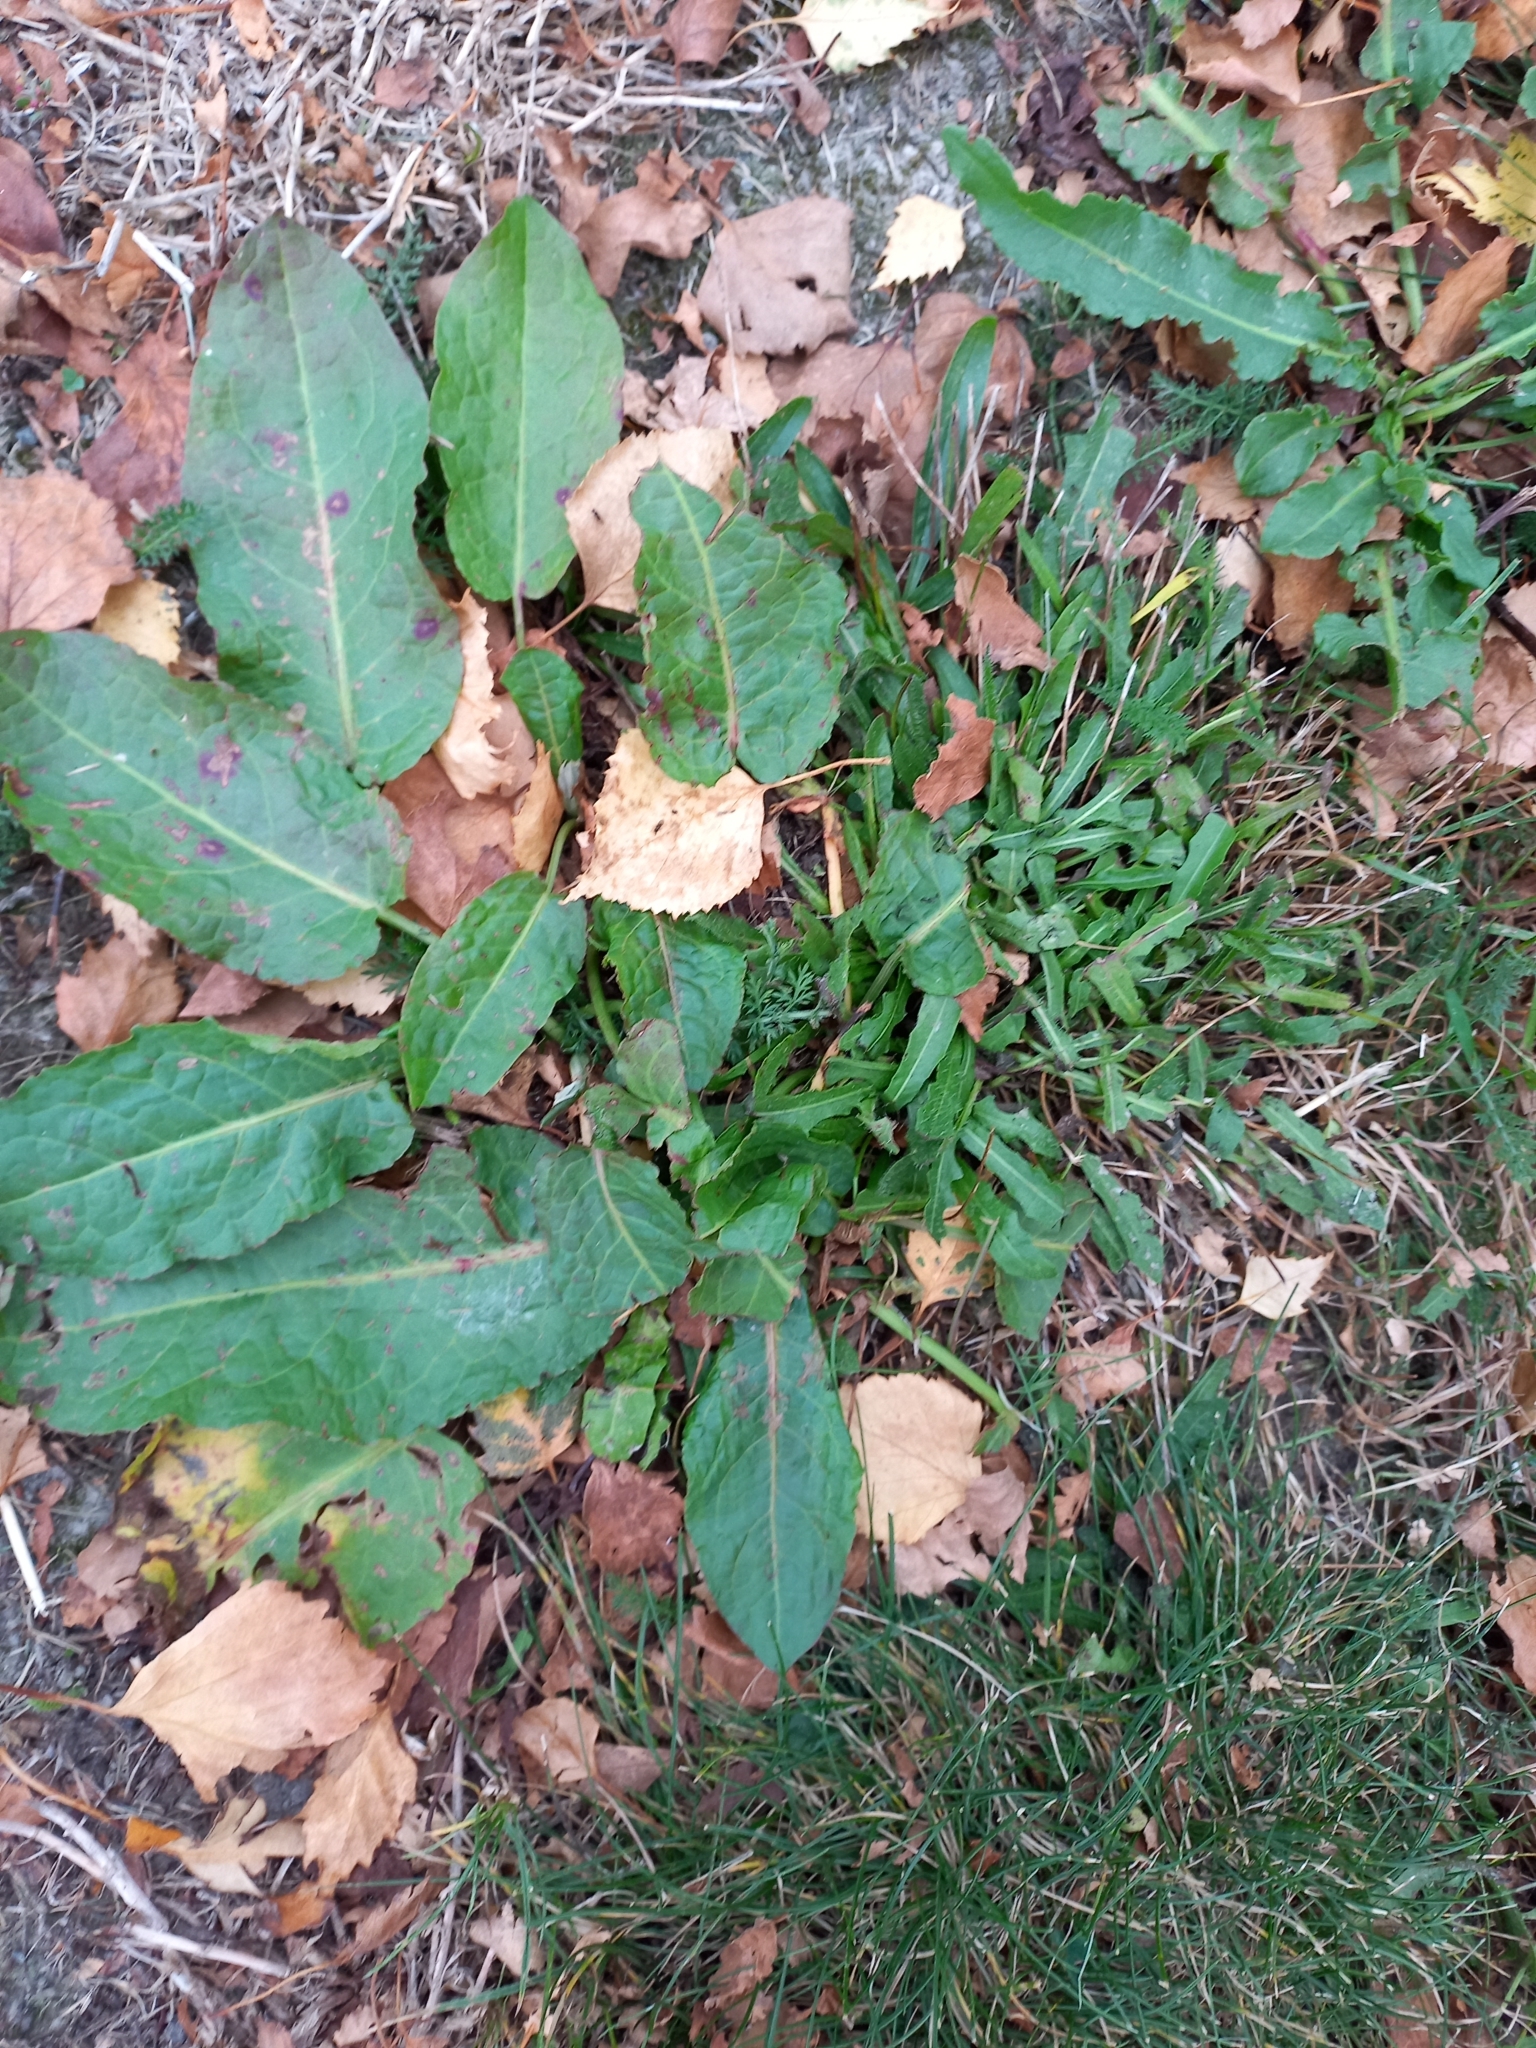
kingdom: Plantae
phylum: Tracheophyta
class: Magnoliopsida
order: Caryophyllales
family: Polygonaceae
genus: Rumex
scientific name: Rumex obtusifolius
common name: Bitter dock
